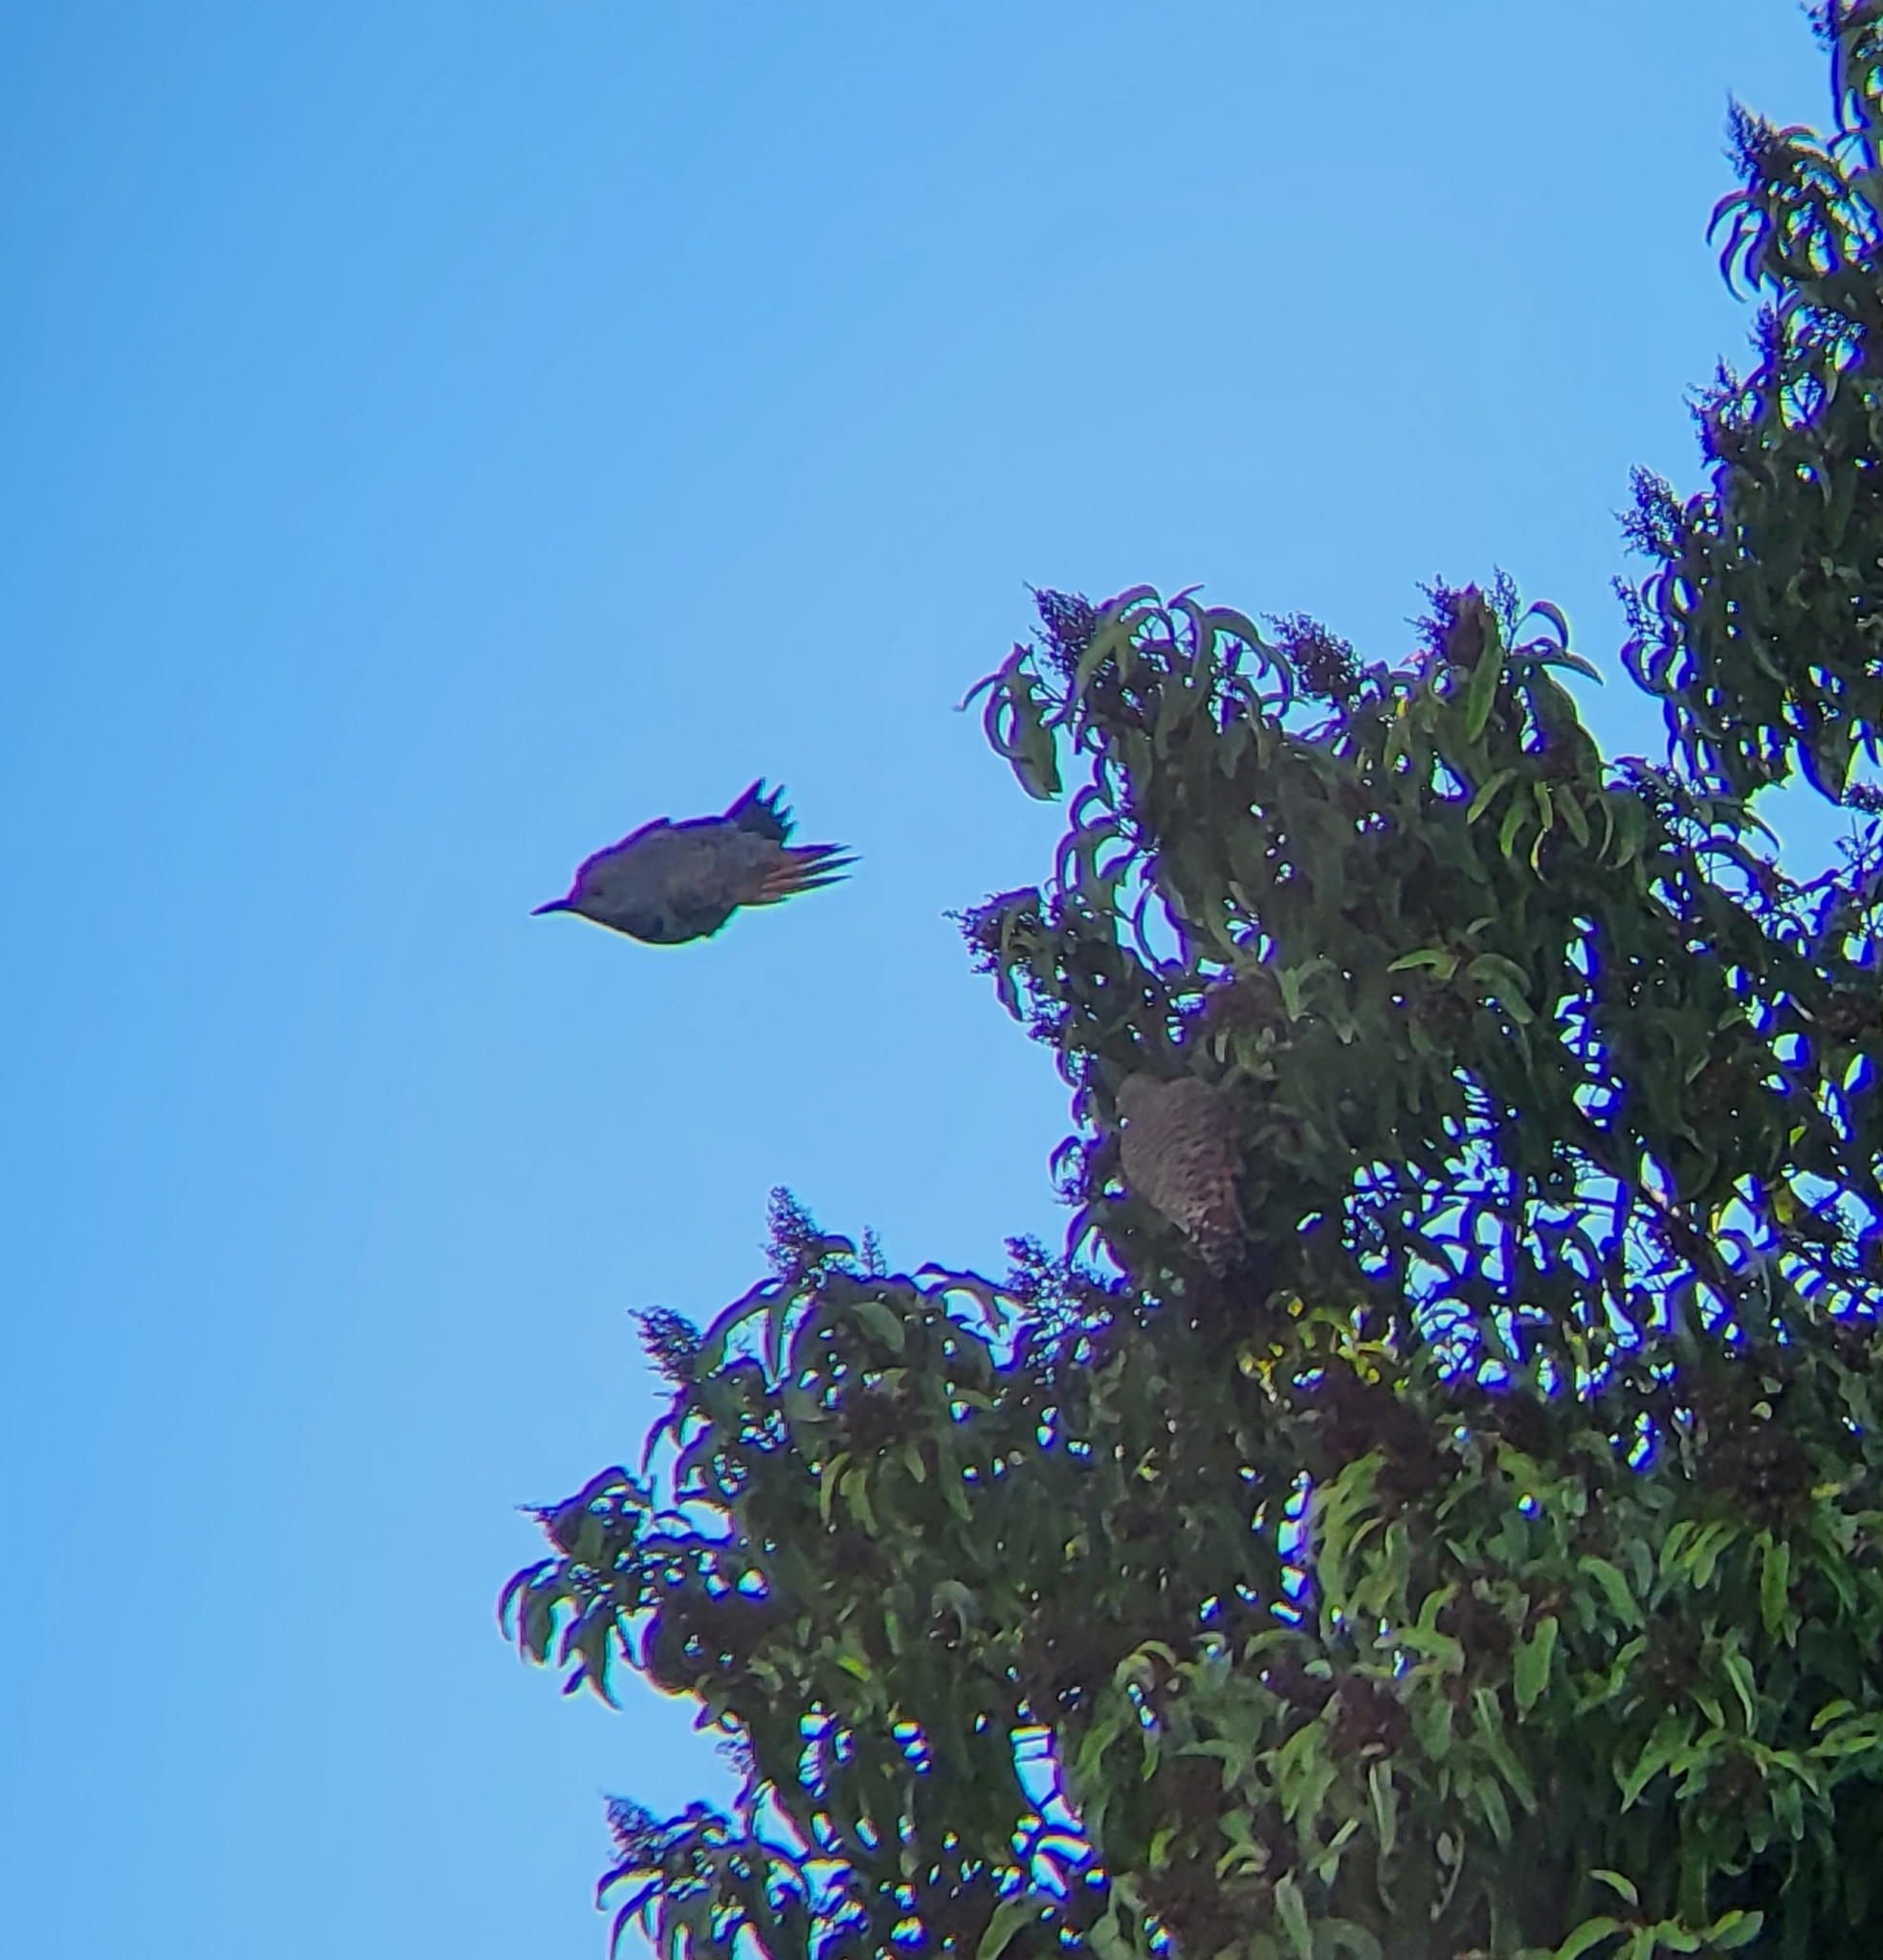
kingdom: Animalia
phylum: Chordata
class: Aves
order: Piciformes
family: Picidae
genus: Colaptes
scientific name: Colaptes auratus
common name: Northern flicker
